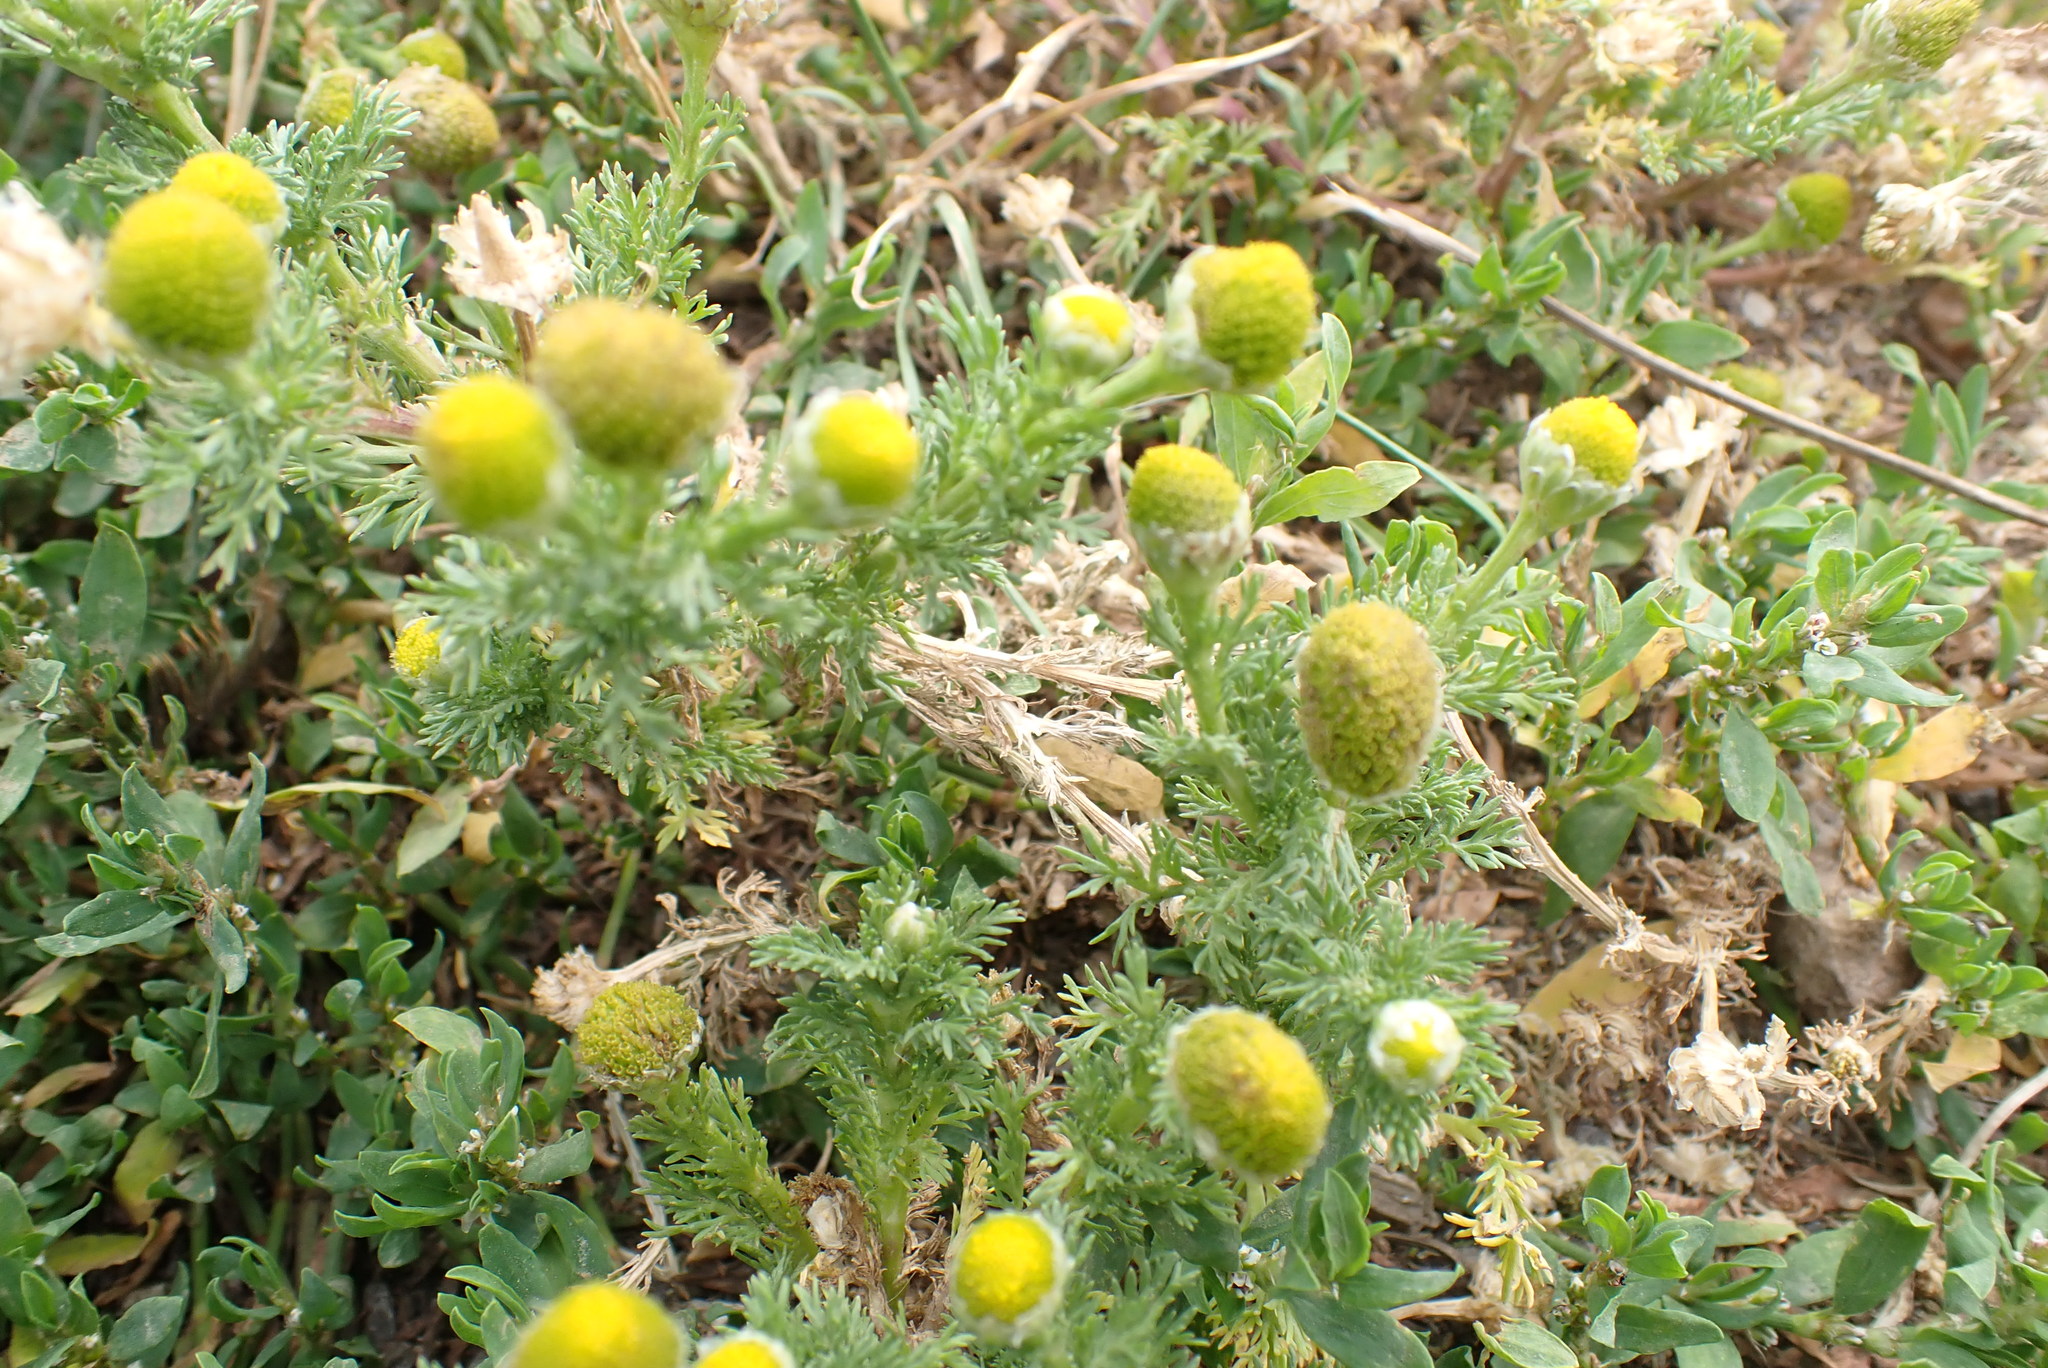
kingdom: Plantae
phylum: Tracheophyta
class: Magnoliopsida
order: Asterales
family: Asteraceae
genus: Matricaria
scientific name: Matricaria discoidea
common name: Disc mayweed
